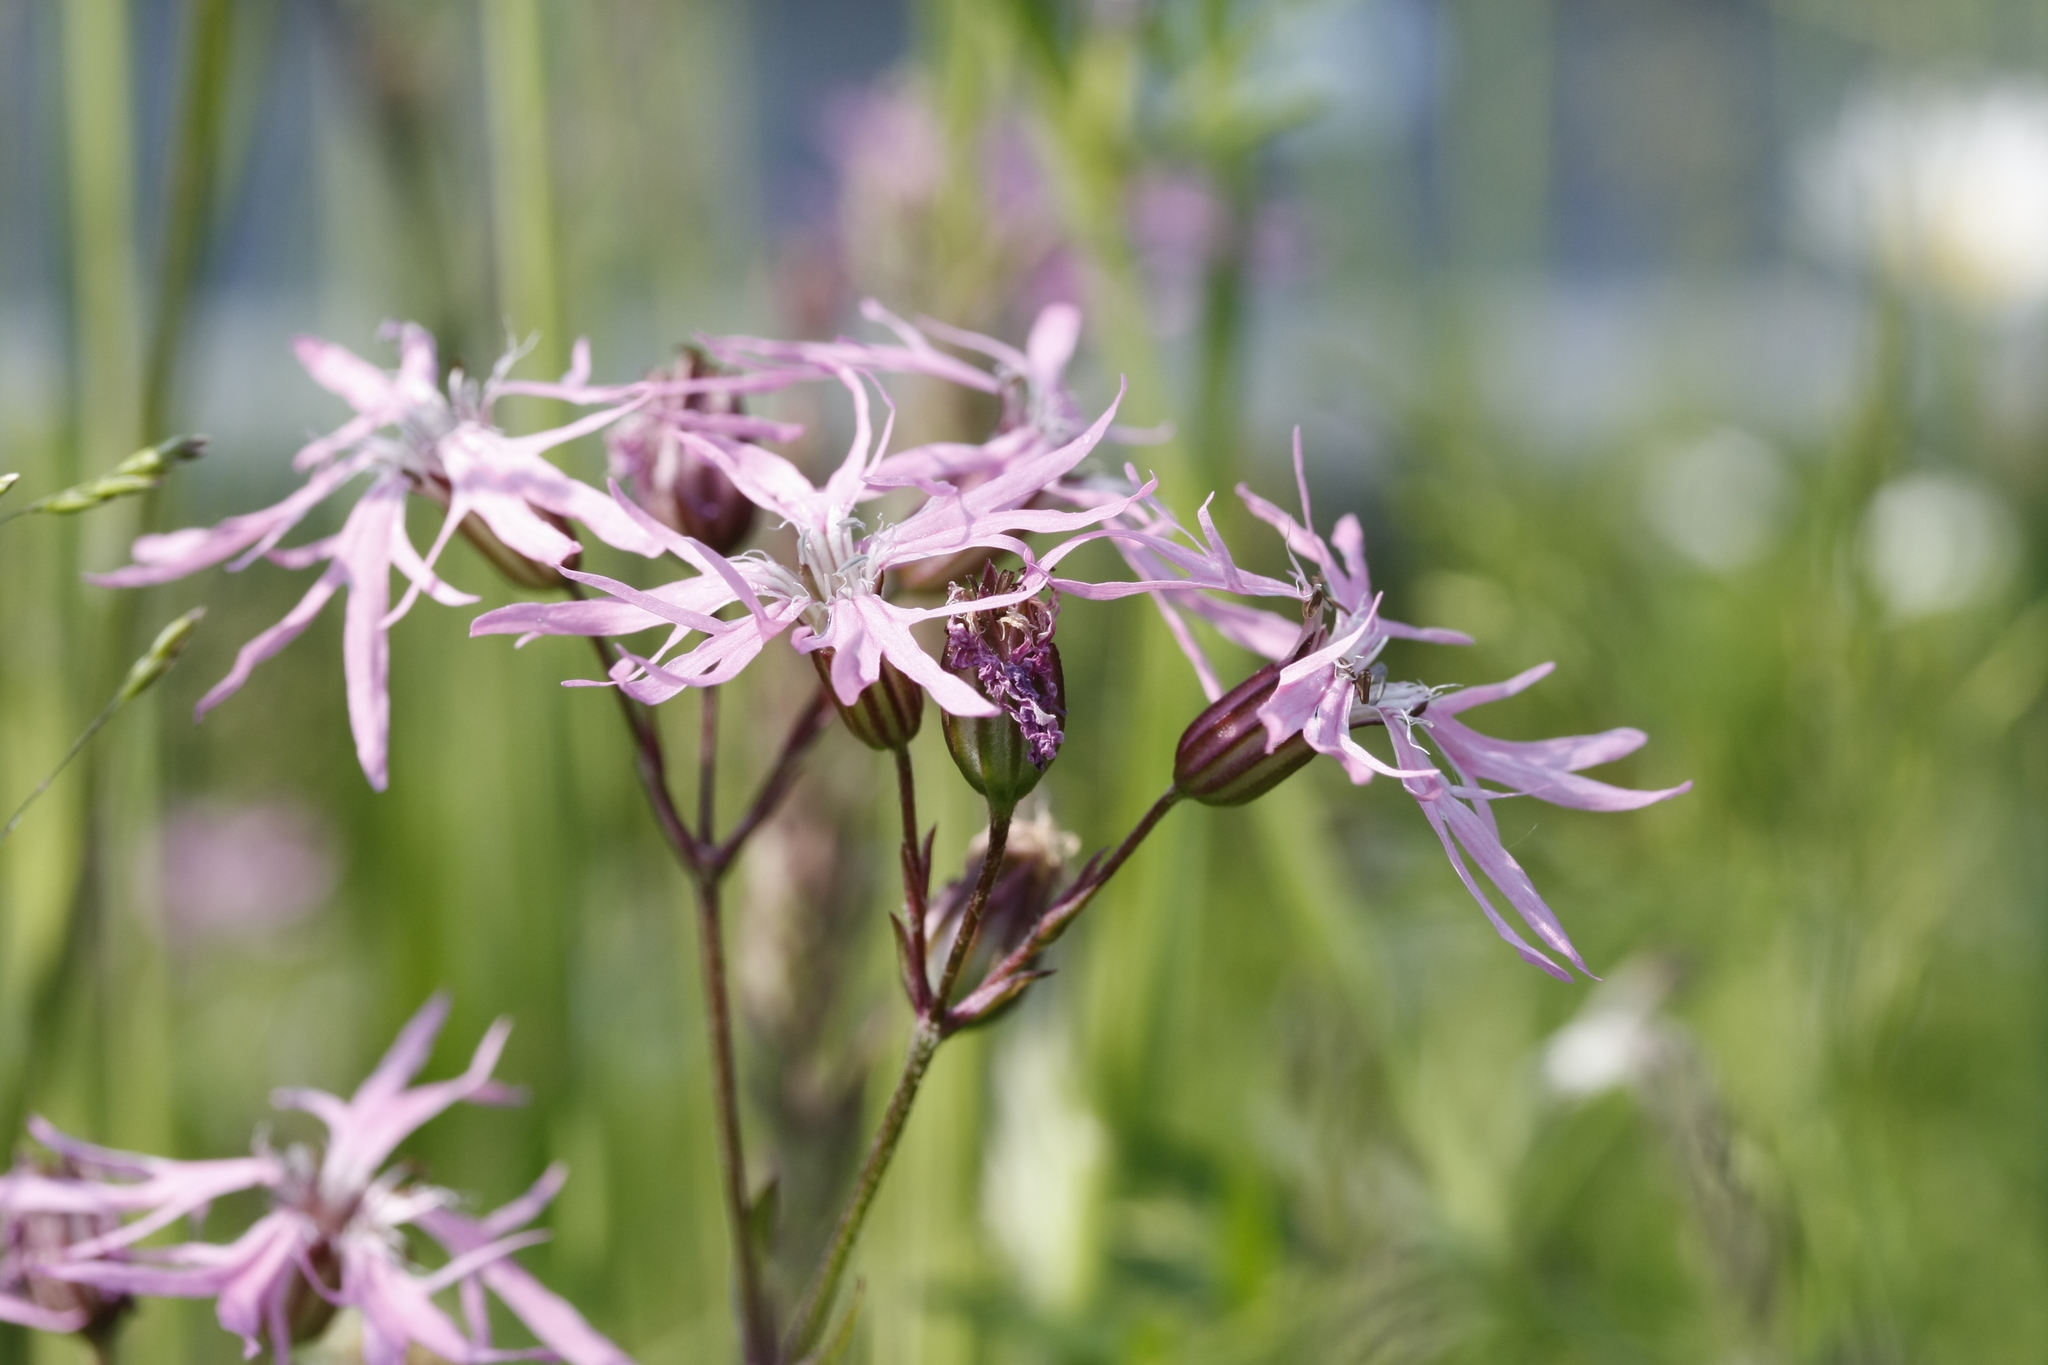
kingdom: Plantae
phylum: Tracheophyta
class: Magnoliopsida
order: Caryophyllales
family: Caryophyllaceae
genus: Silene
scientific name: Silene flos-cuculi
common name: Ragged-robin
